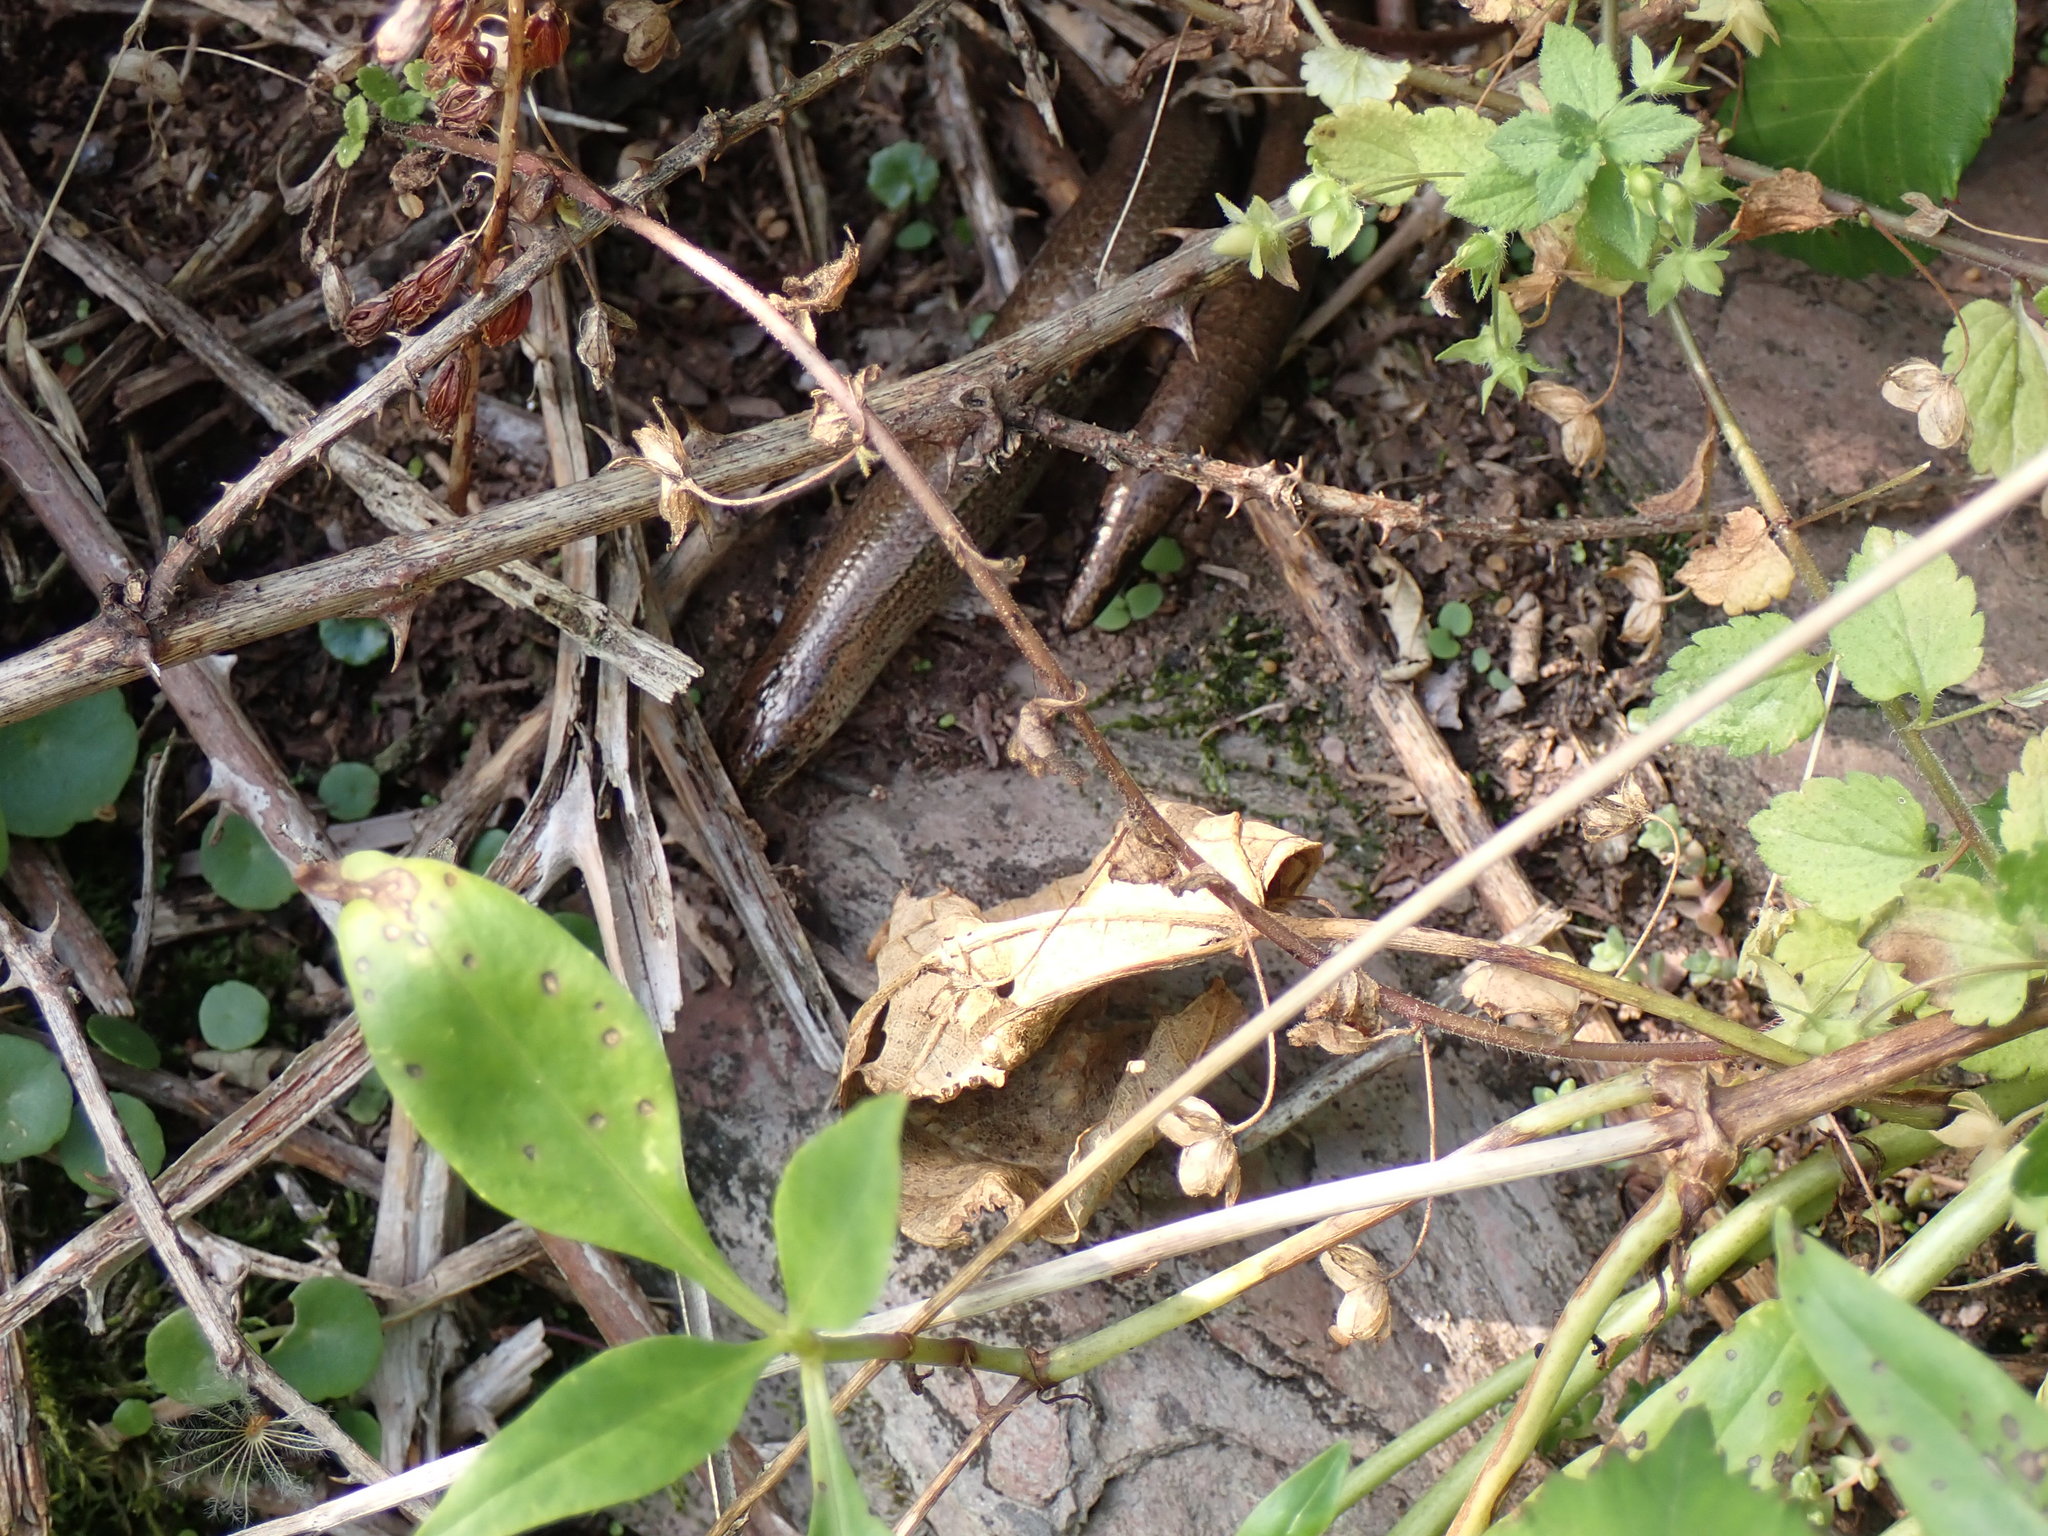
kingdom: Animalia
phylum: Chordata
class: Squamata
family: Anguidae
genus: Anguis
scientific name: Anguis fragilis
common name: Slow worm
